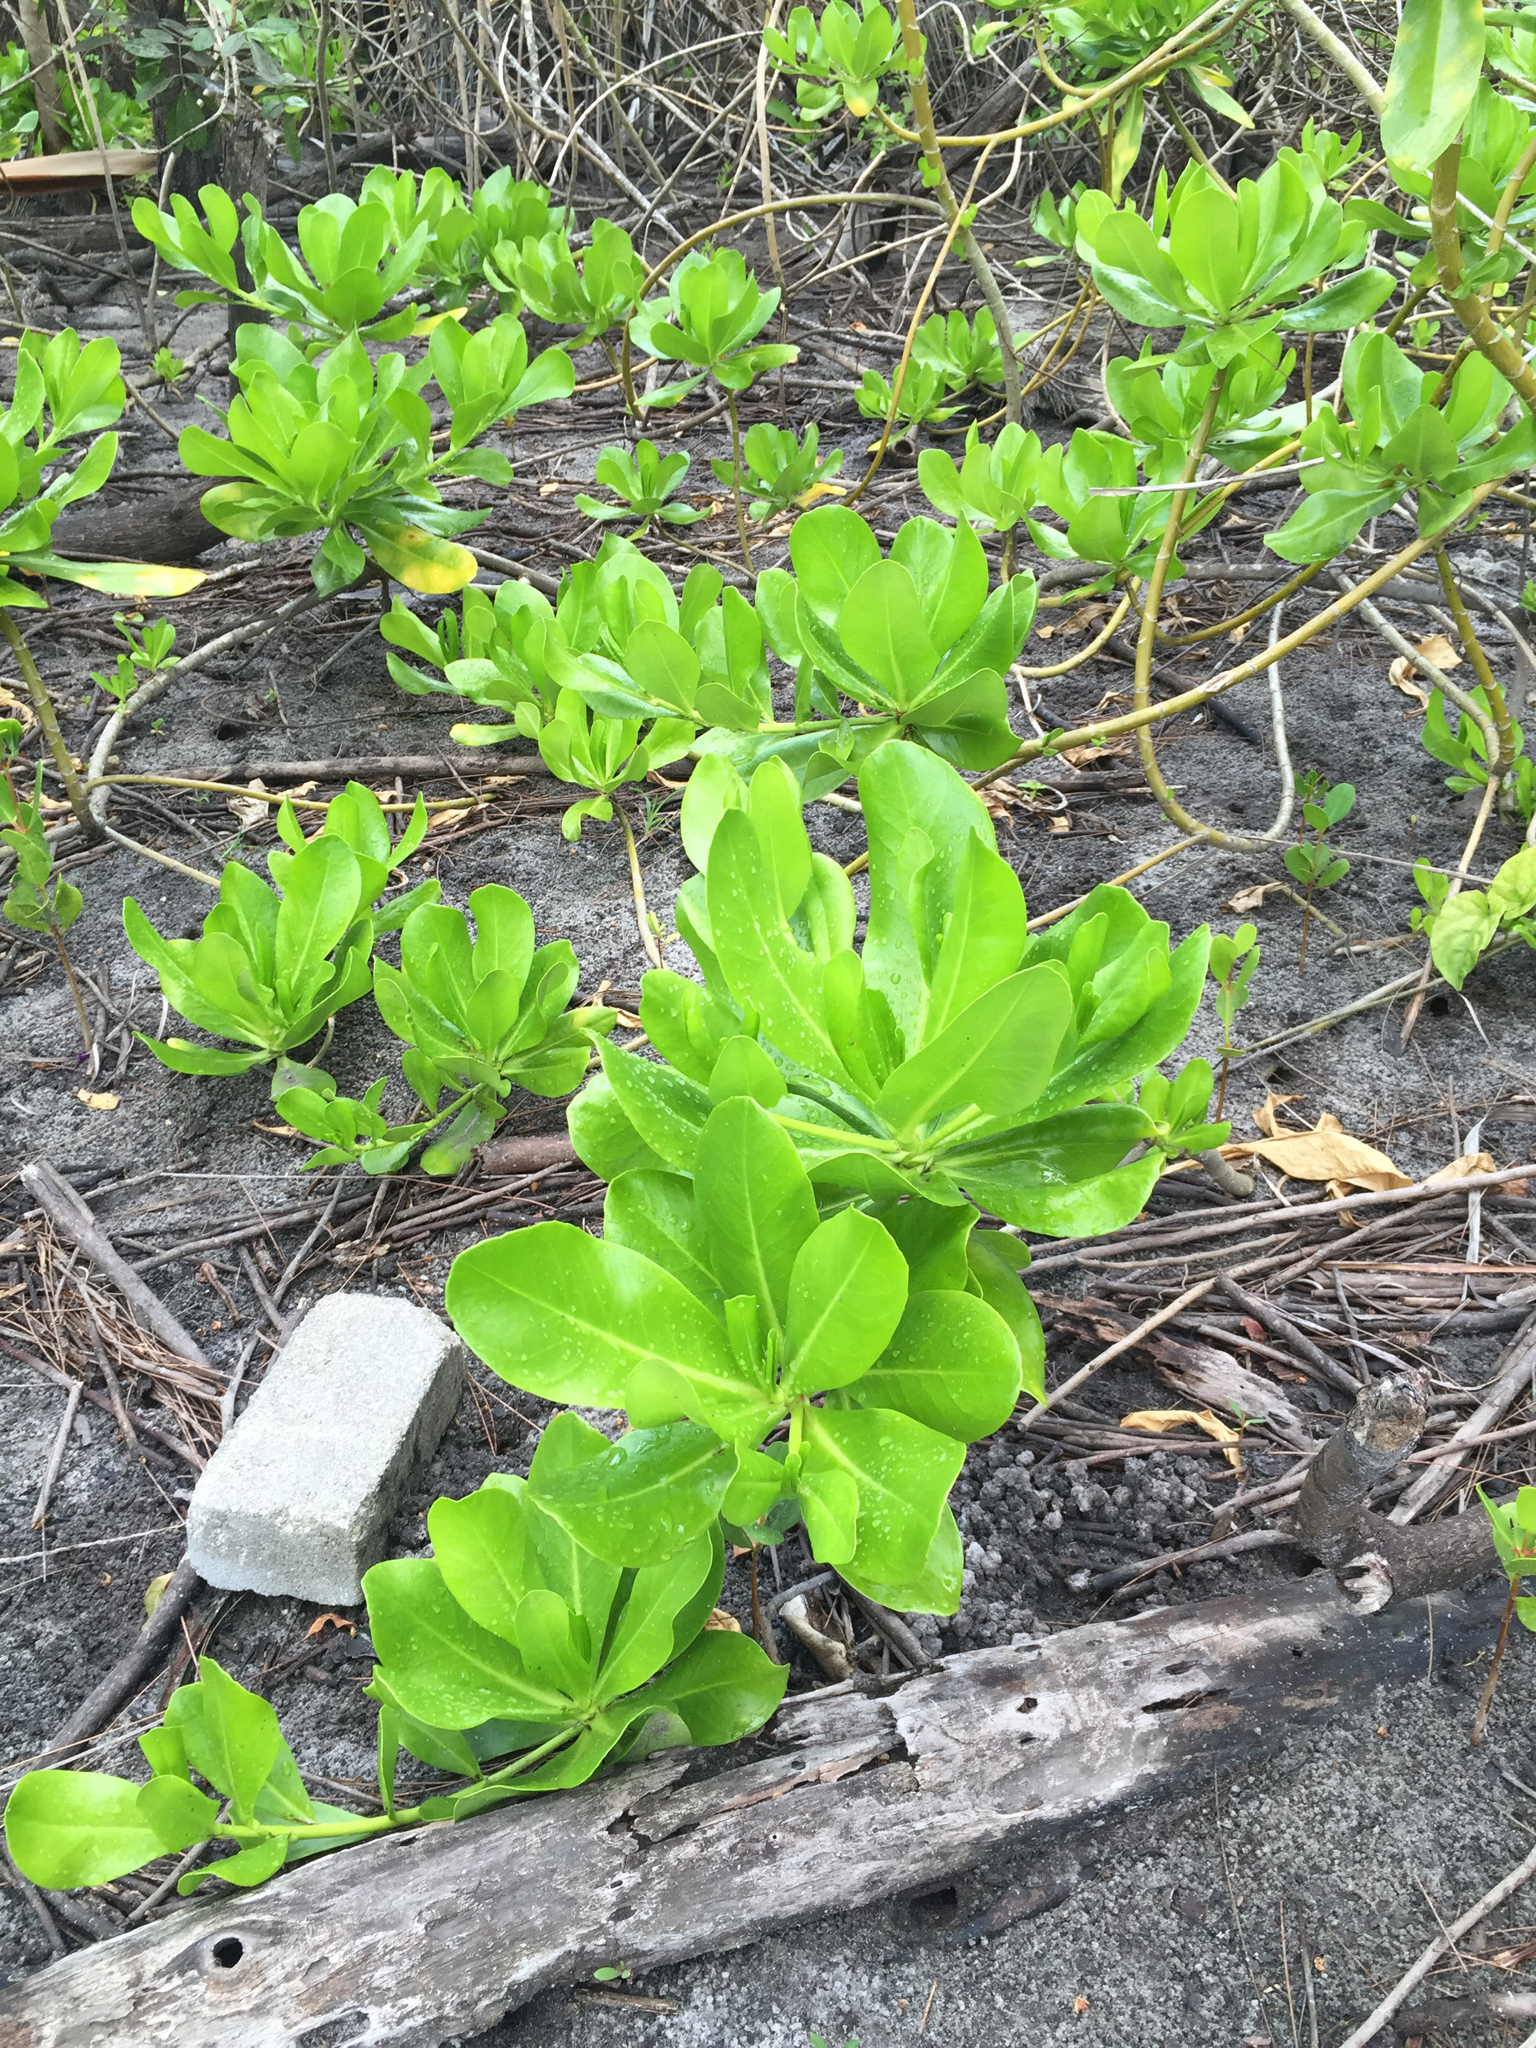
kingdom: Plantae
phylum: Tracheophyta
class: Magnoliopsida
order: Asterales
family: Goodeniaceae
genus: Scaevola
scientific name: Scaevola taccada
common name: Sea lettucetree
